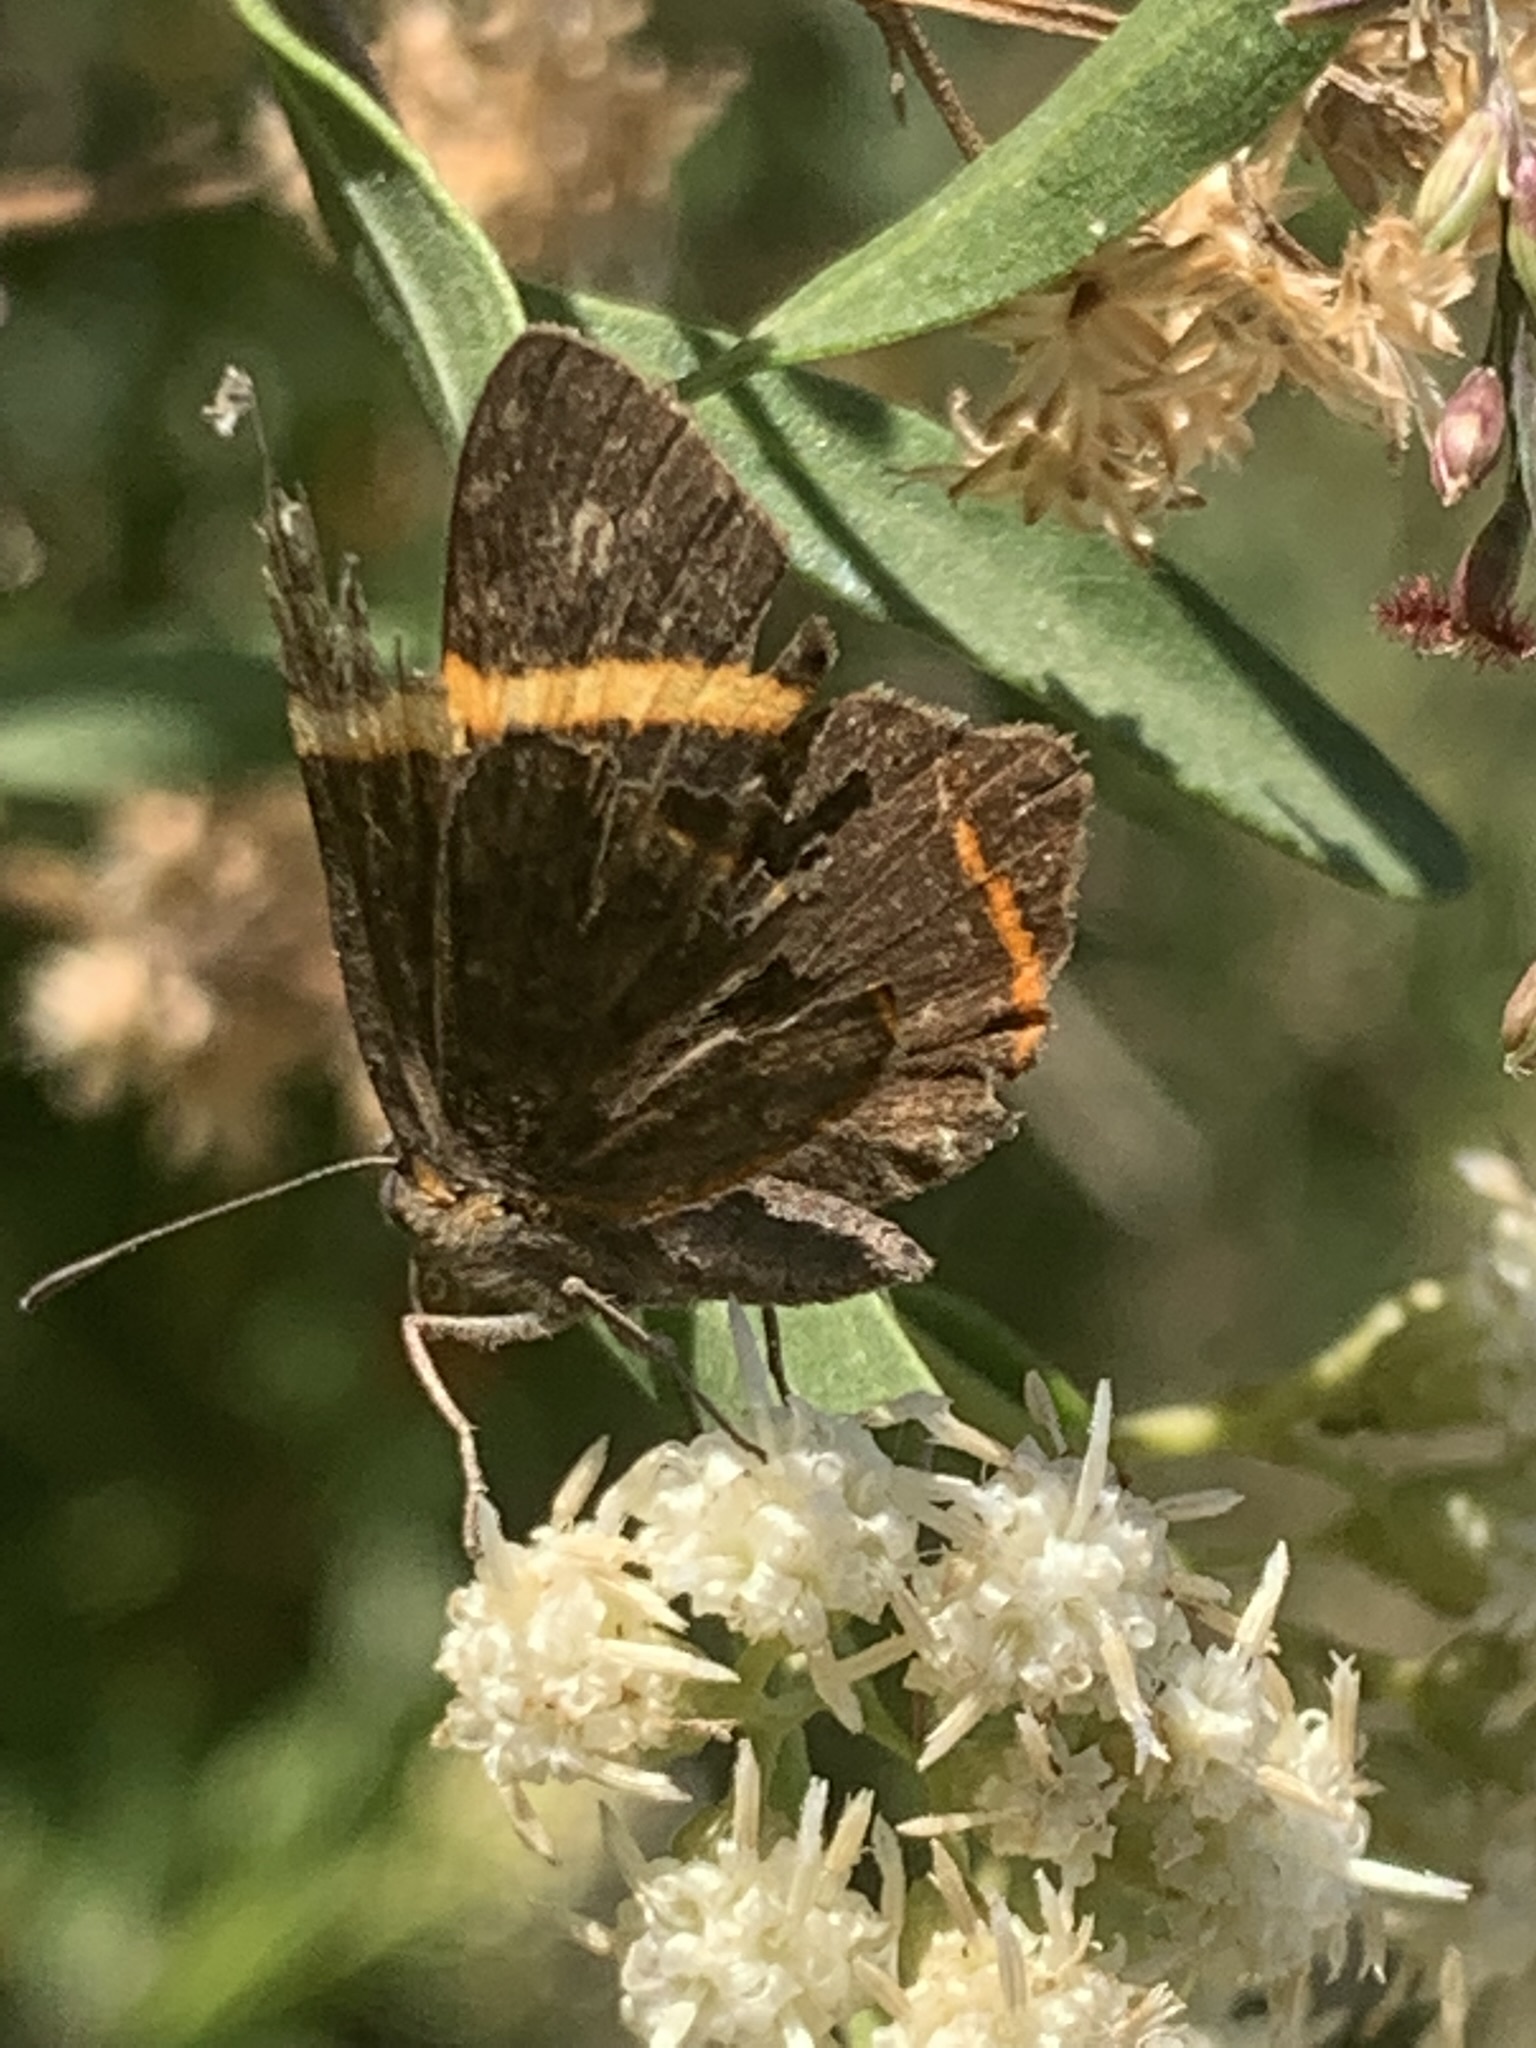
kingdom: Animalia
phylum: Arthropoda
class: Insecta
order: Lepidoptera
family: Riodinidae
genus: Riodina
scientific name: Riodina lysippoides
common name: Little dancer metalmark
